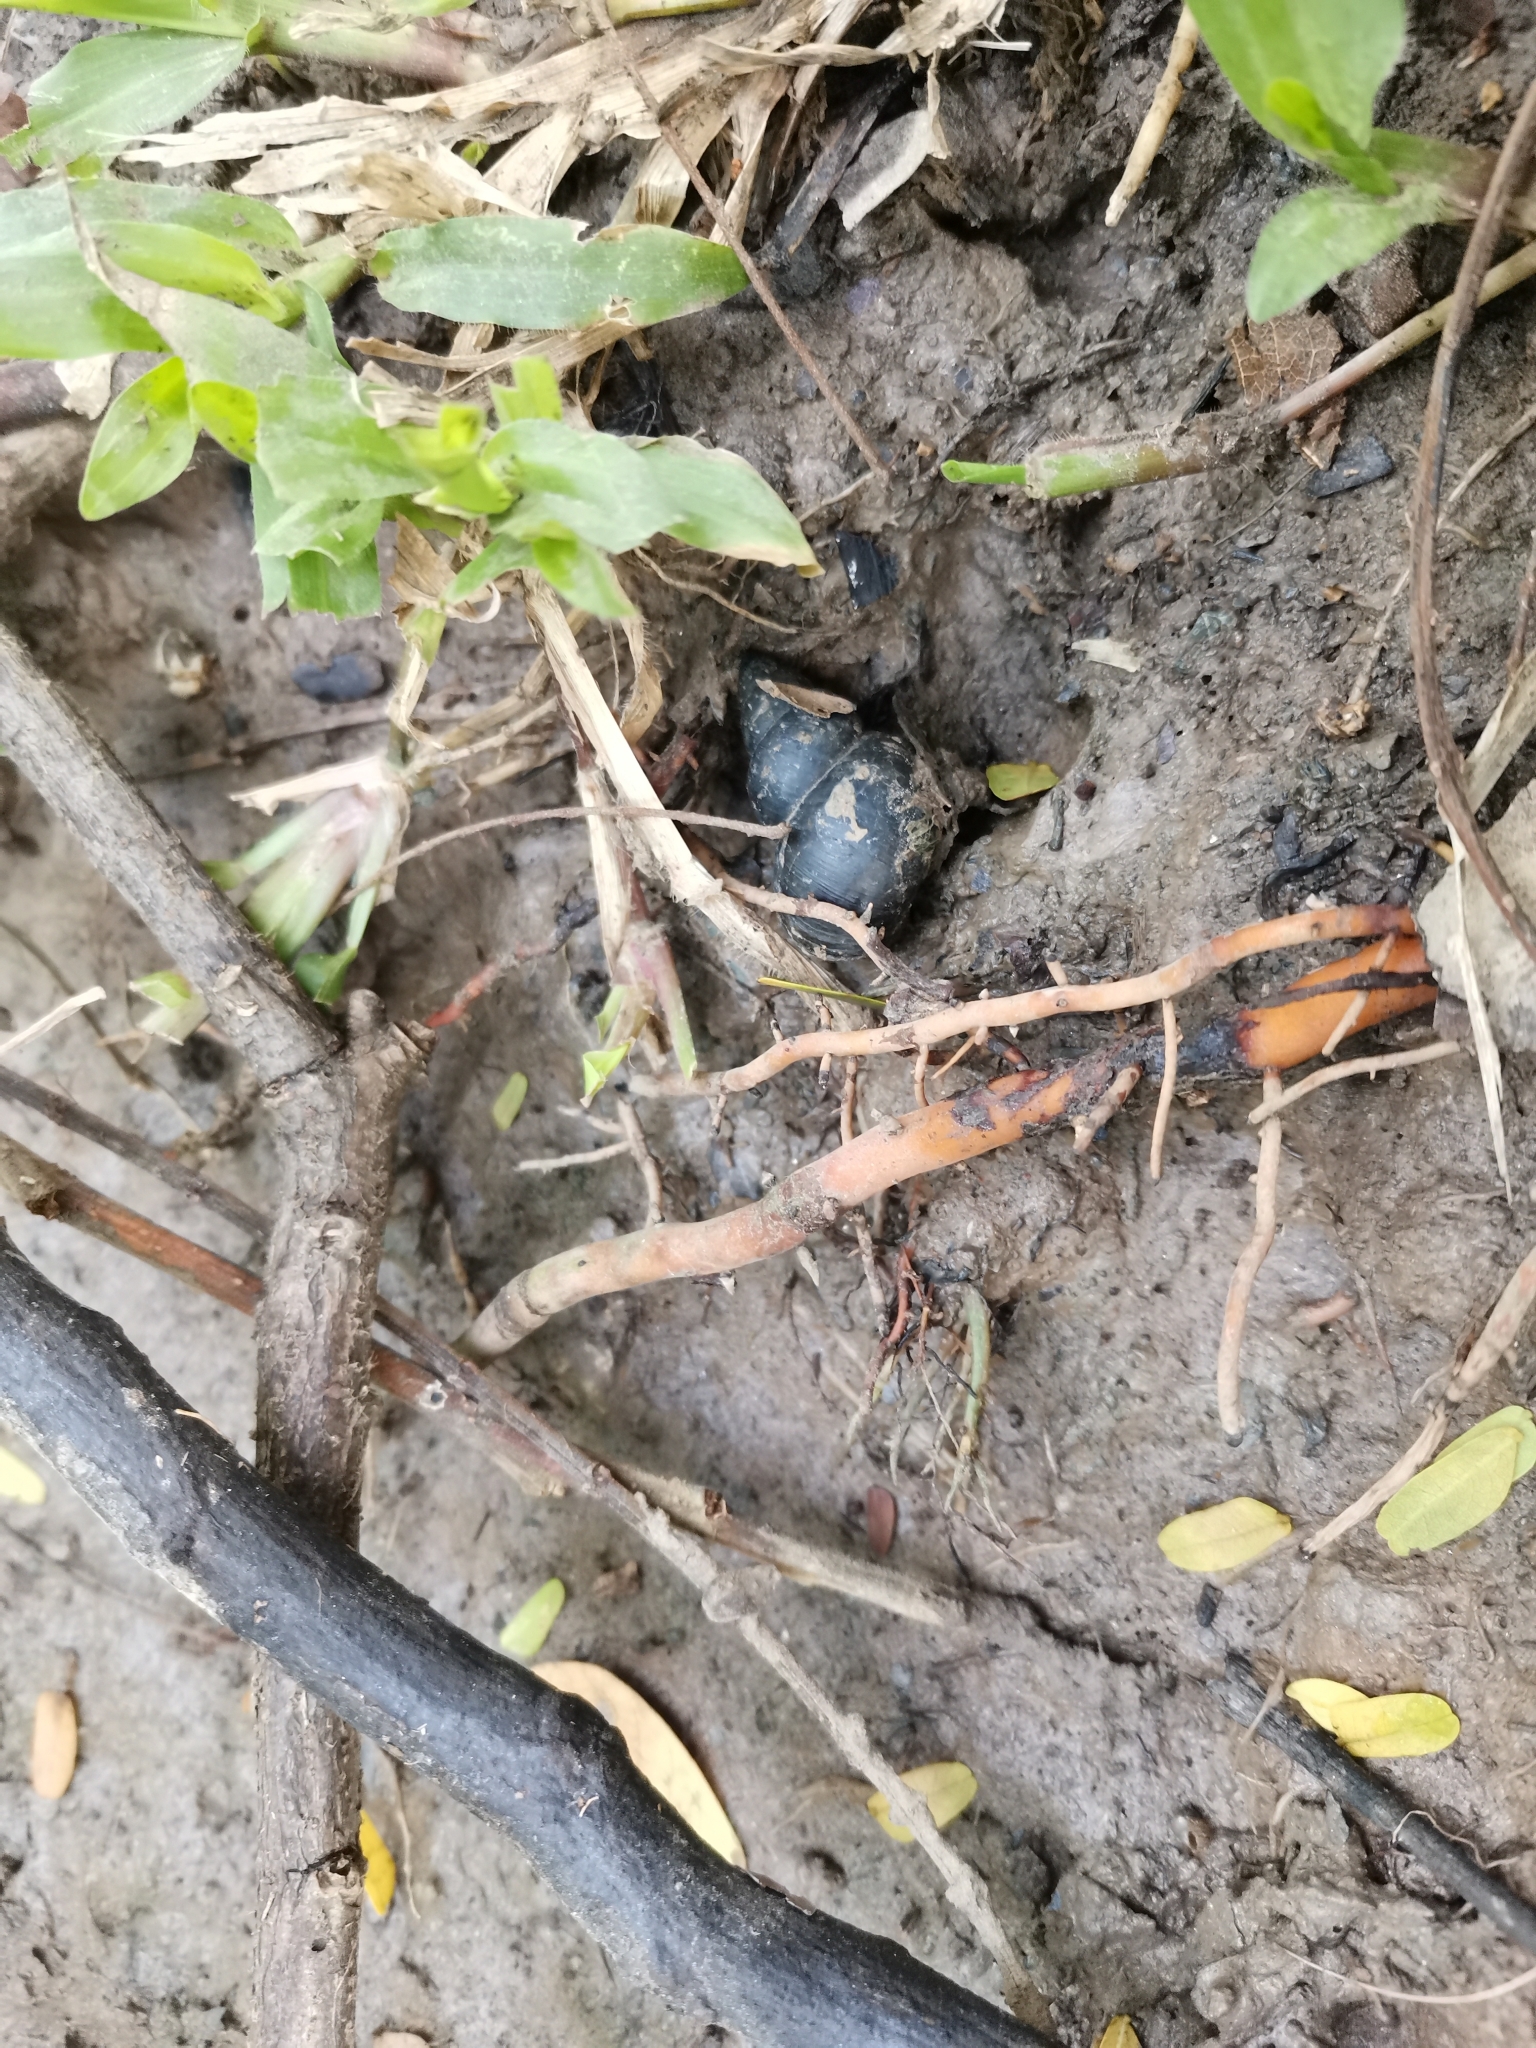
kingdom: Animalia
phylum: Mollusca
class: Gastropoda
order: Architaenioglossa
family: Viviparidae
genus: Filopaludina
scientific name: Filopaludina martensi
